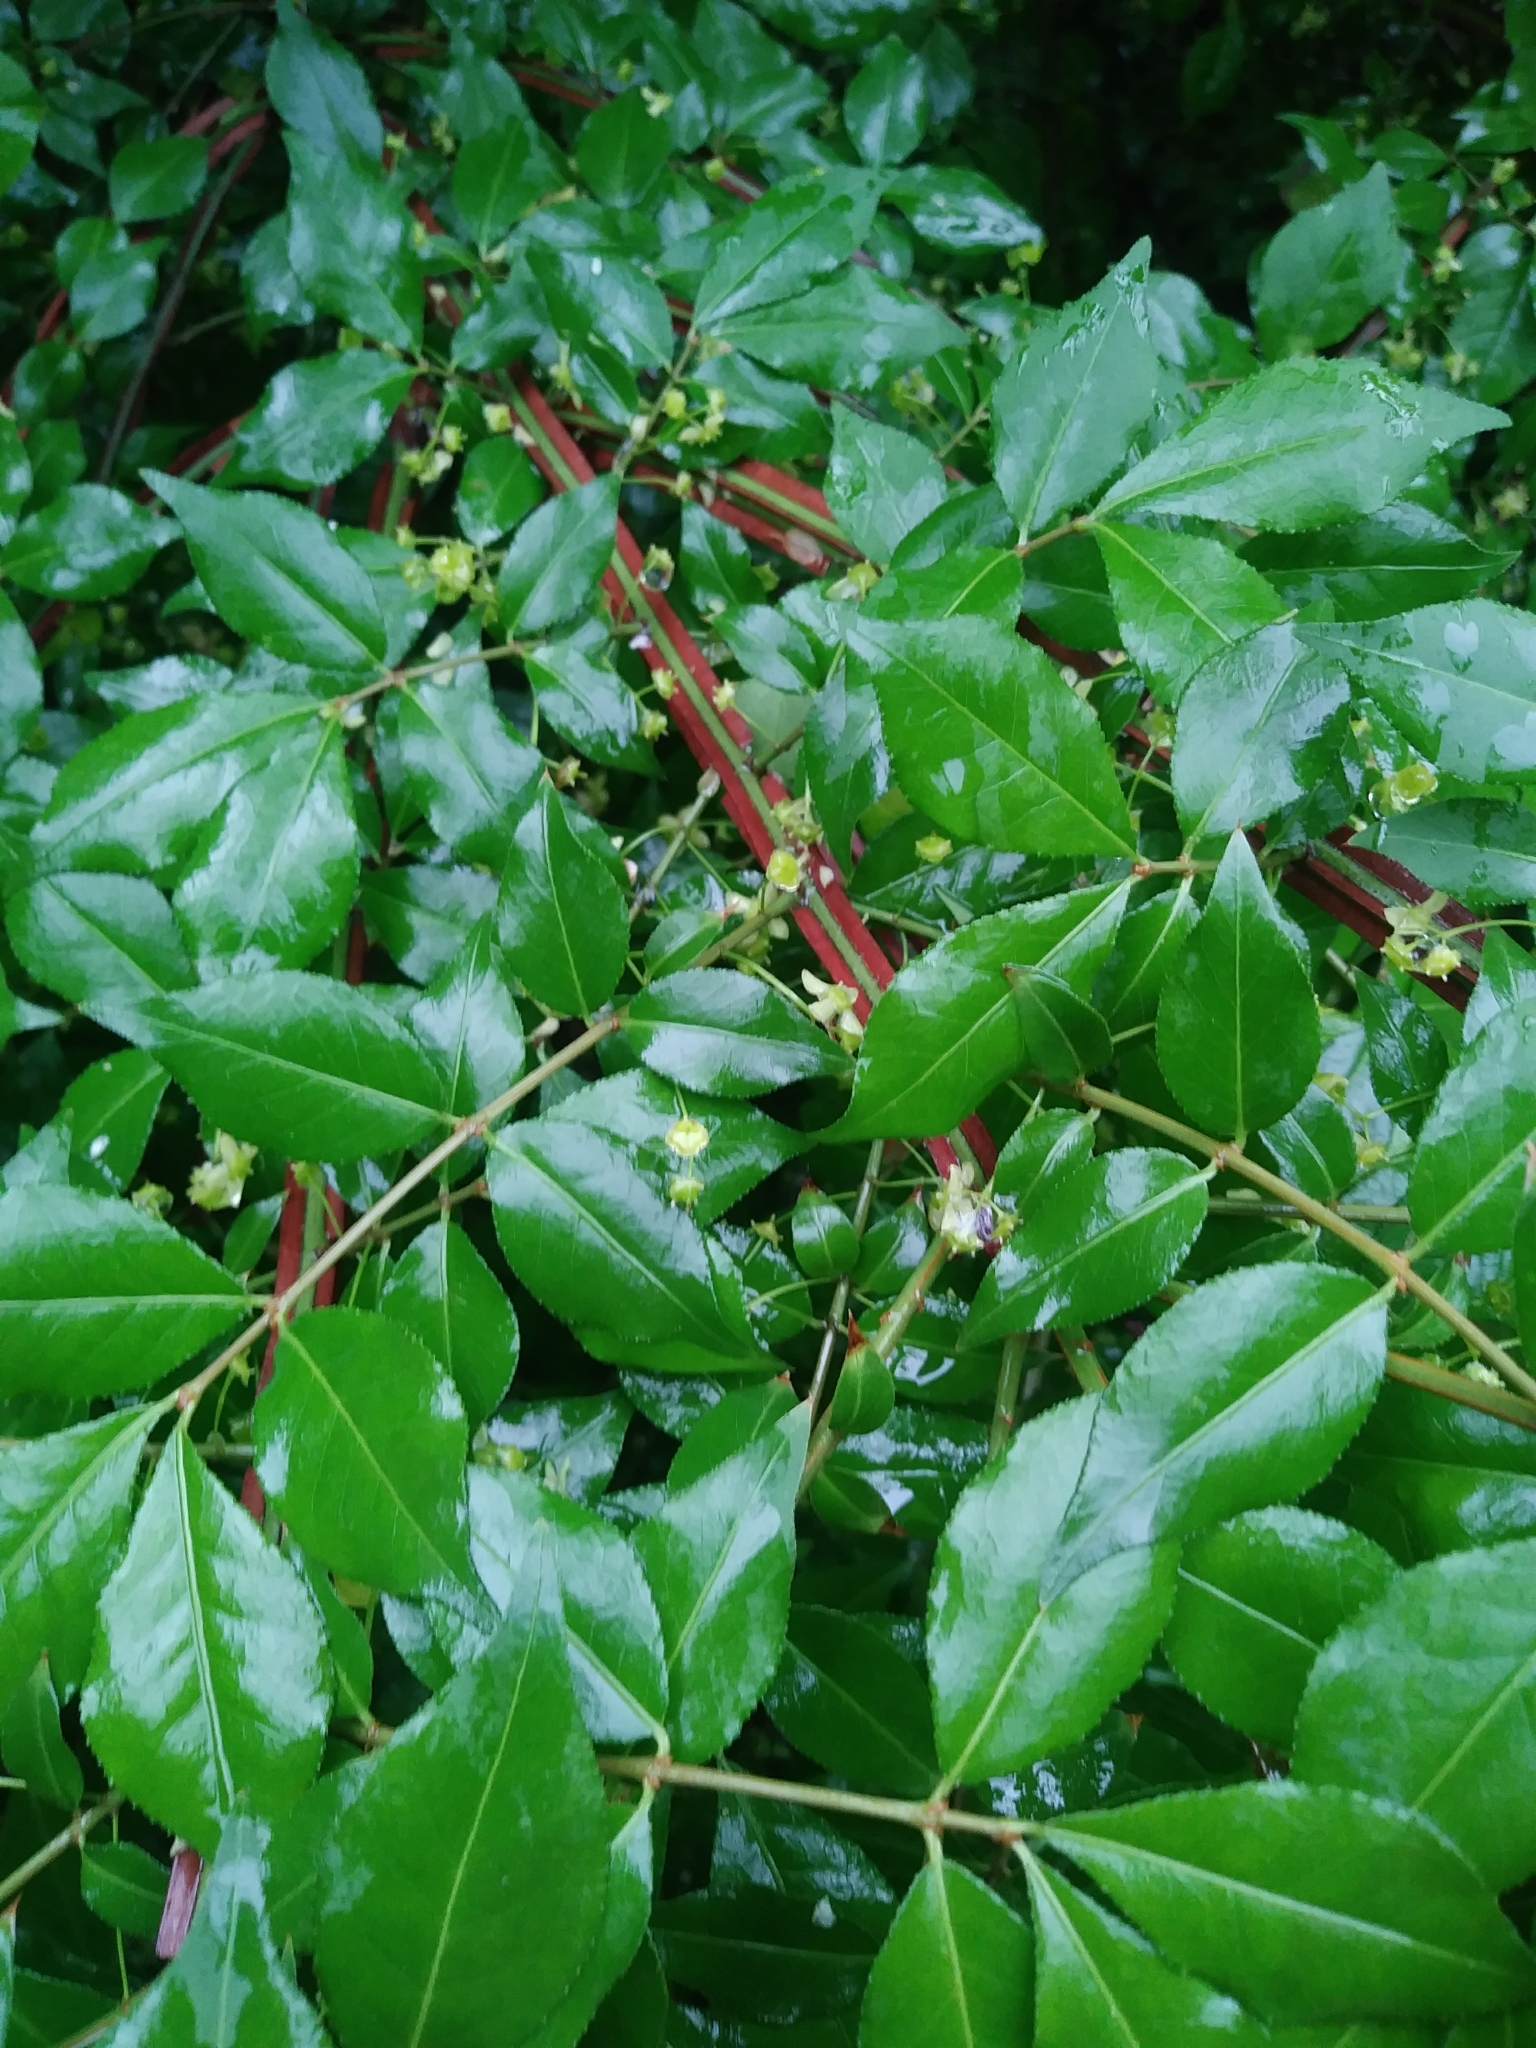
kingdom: Plantae
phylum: Tracheophyta
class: Magnoliopsida
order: Celastrales
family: Celastraceae
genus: Euonymus
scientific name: Euonymus alatus
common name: Winged euonymus
